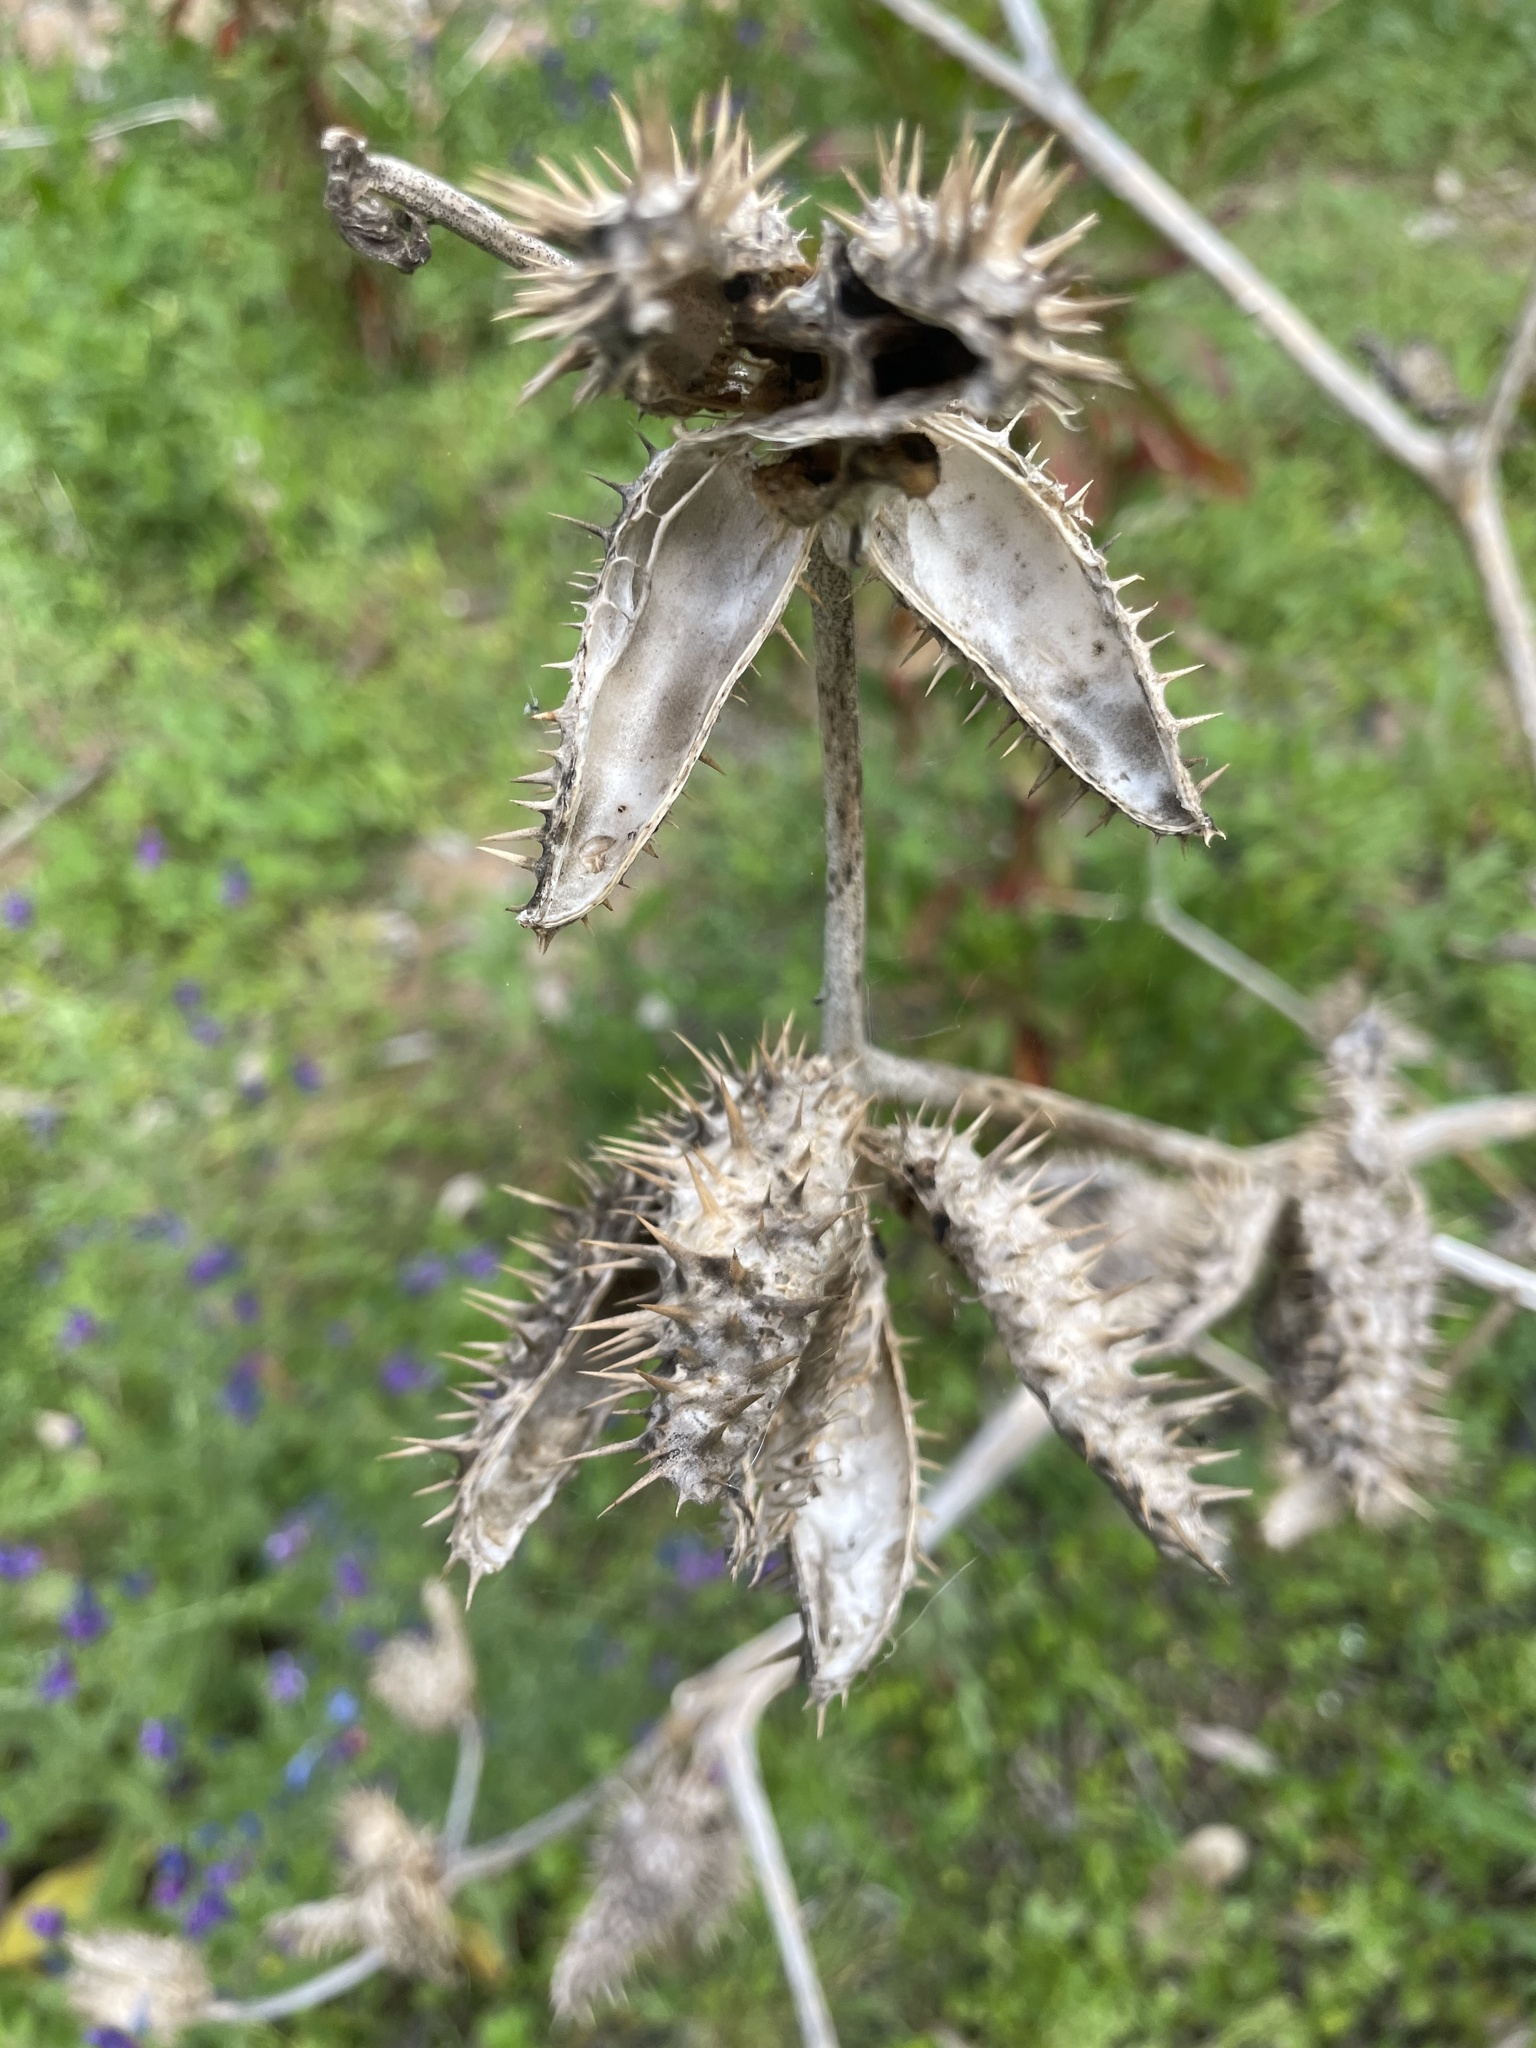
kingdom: Plantae
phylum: Tracheophyta
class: Magnoliopsida
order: Solanales
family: Solanaceae
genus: Datura
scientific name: Datura stramonium
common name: Thorn-apple
